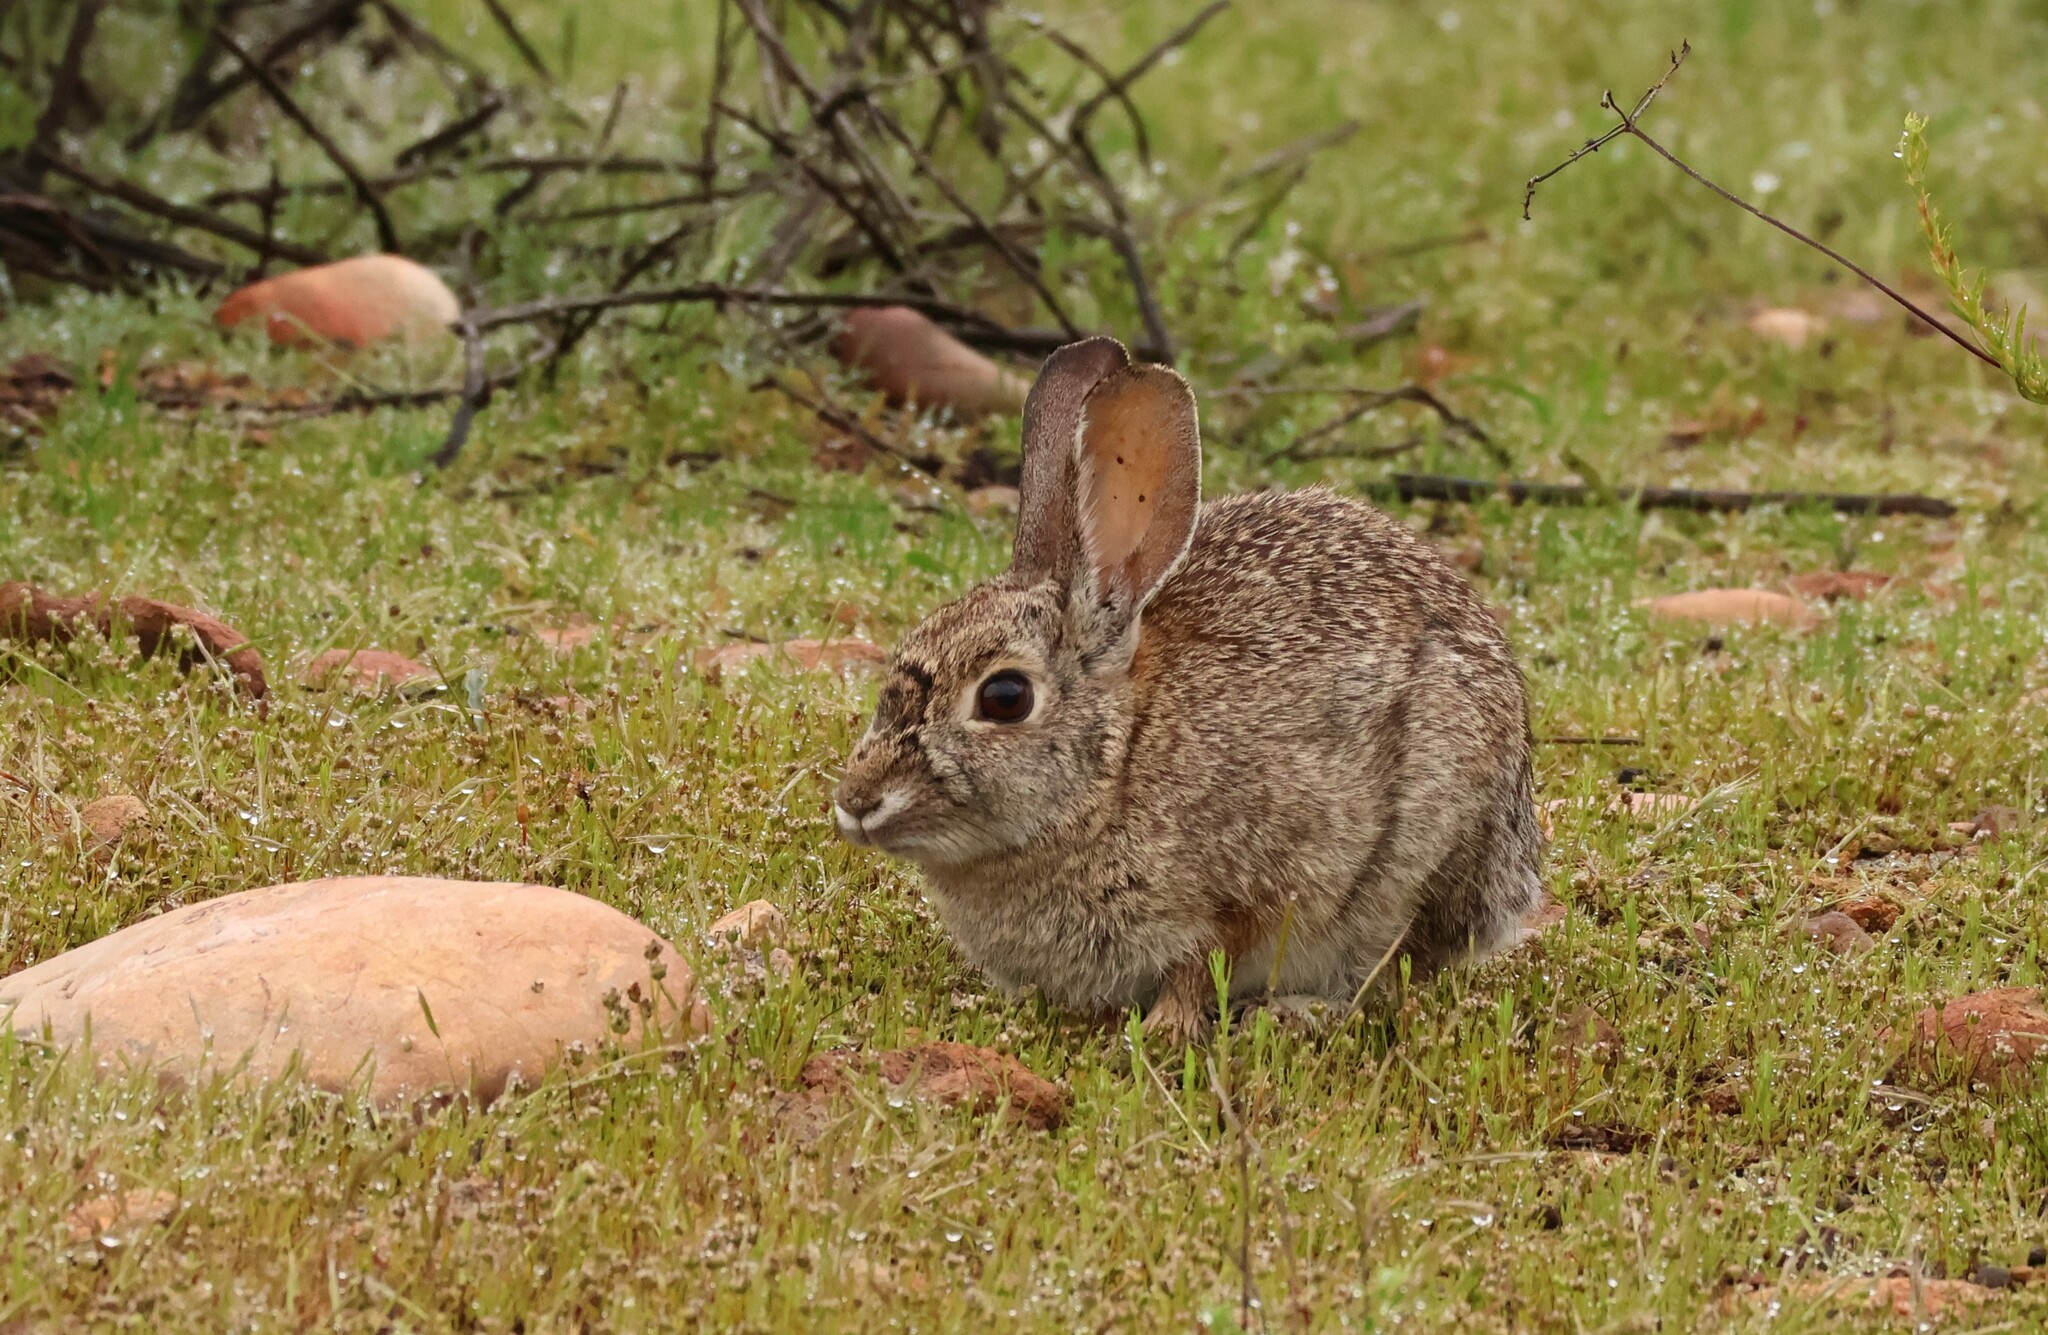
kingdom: Animalia
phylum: Chordata
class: Mammalia
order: Lagomorpha
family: Leporidae
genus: Sylvilagus
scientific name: Sylvilagus audubonii
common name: Desert cottontail
